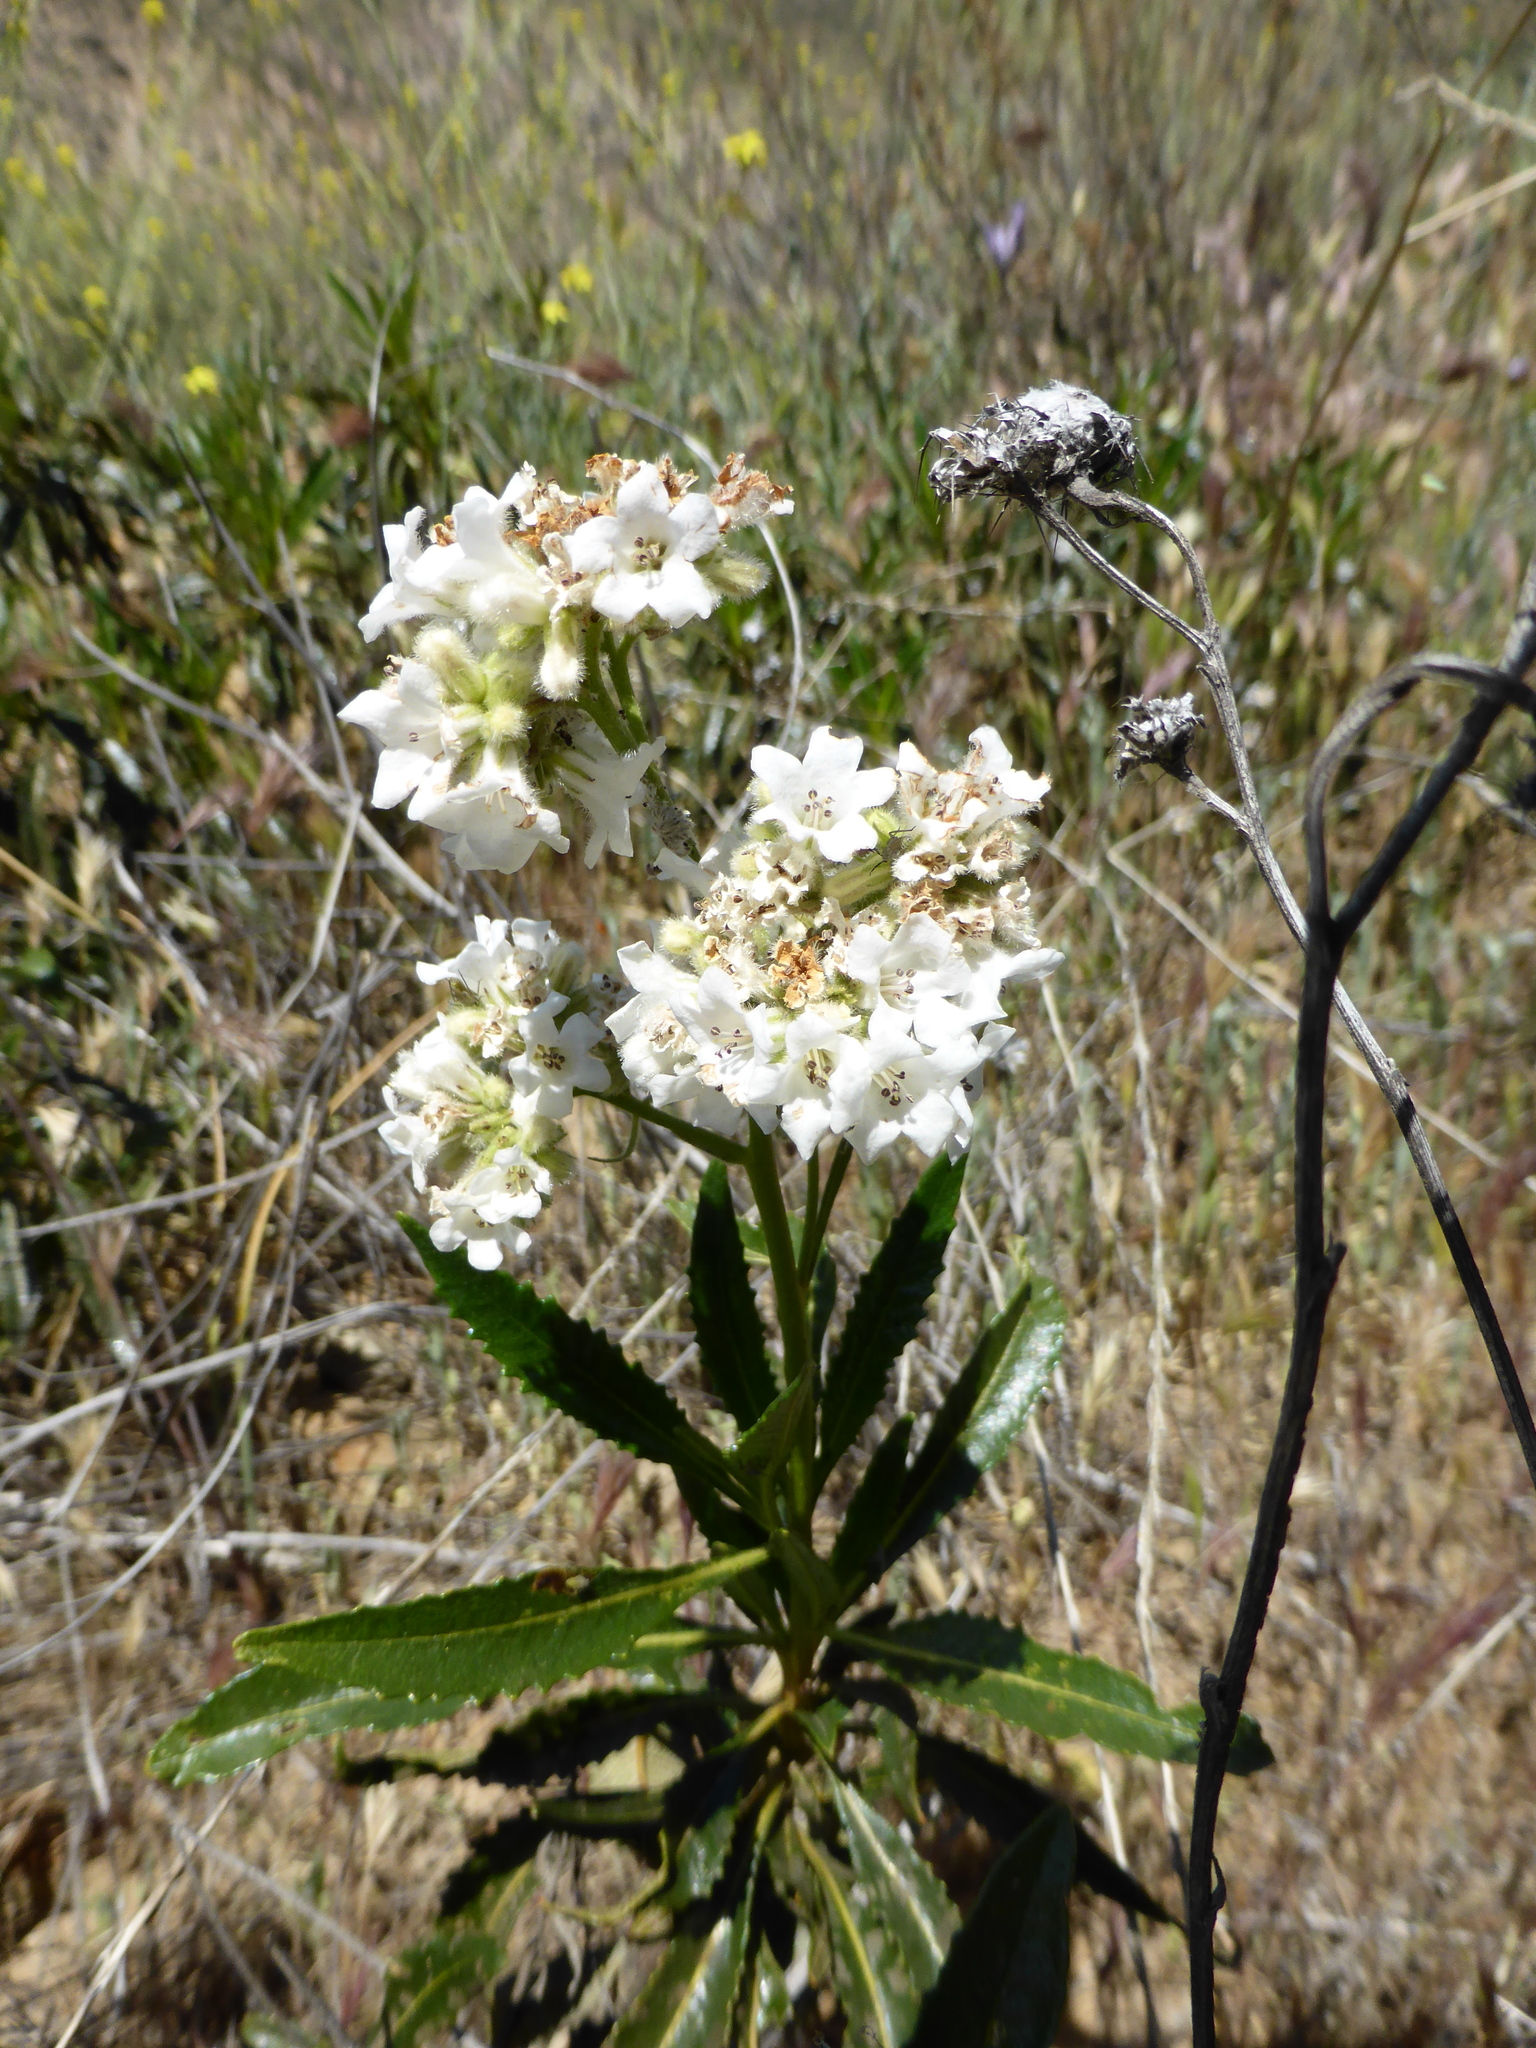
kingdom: Plantae
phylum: Tracheophyta
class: Magnoliopsida
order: Boraginales
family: Namaceae
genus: Eriodictyon
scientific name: Eriodictyon trichocalyx
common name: Hairy yerba-santa
